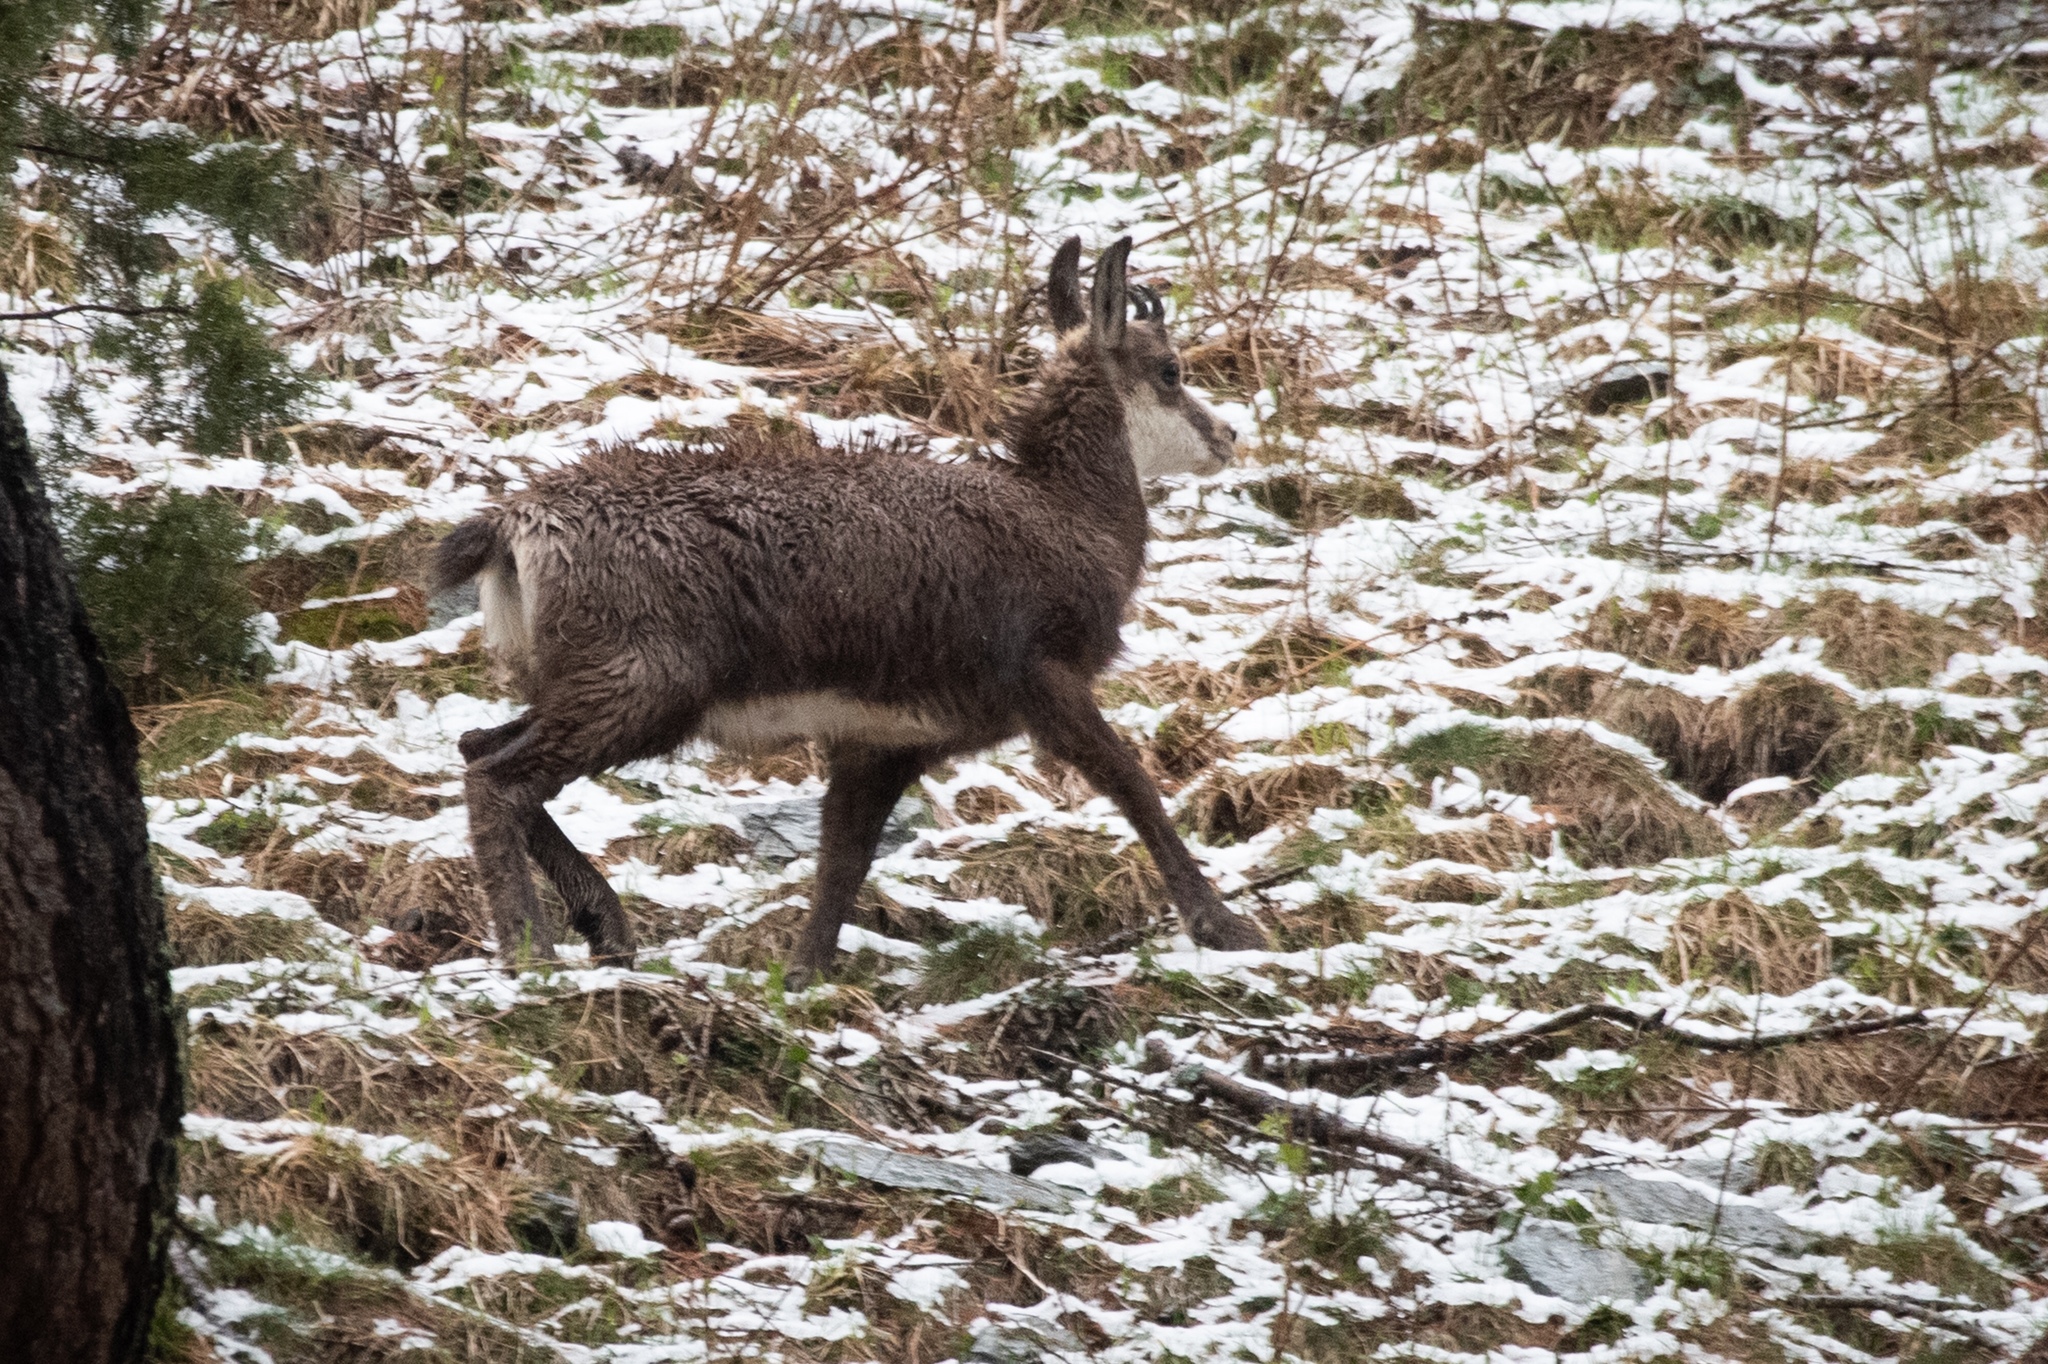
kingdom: Animalia
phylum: Chordata
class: Mammalia
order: Artiodactyla
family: Bovidae
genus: Rupicapra
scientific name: Rupicapra rupicapra
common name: Chamois
